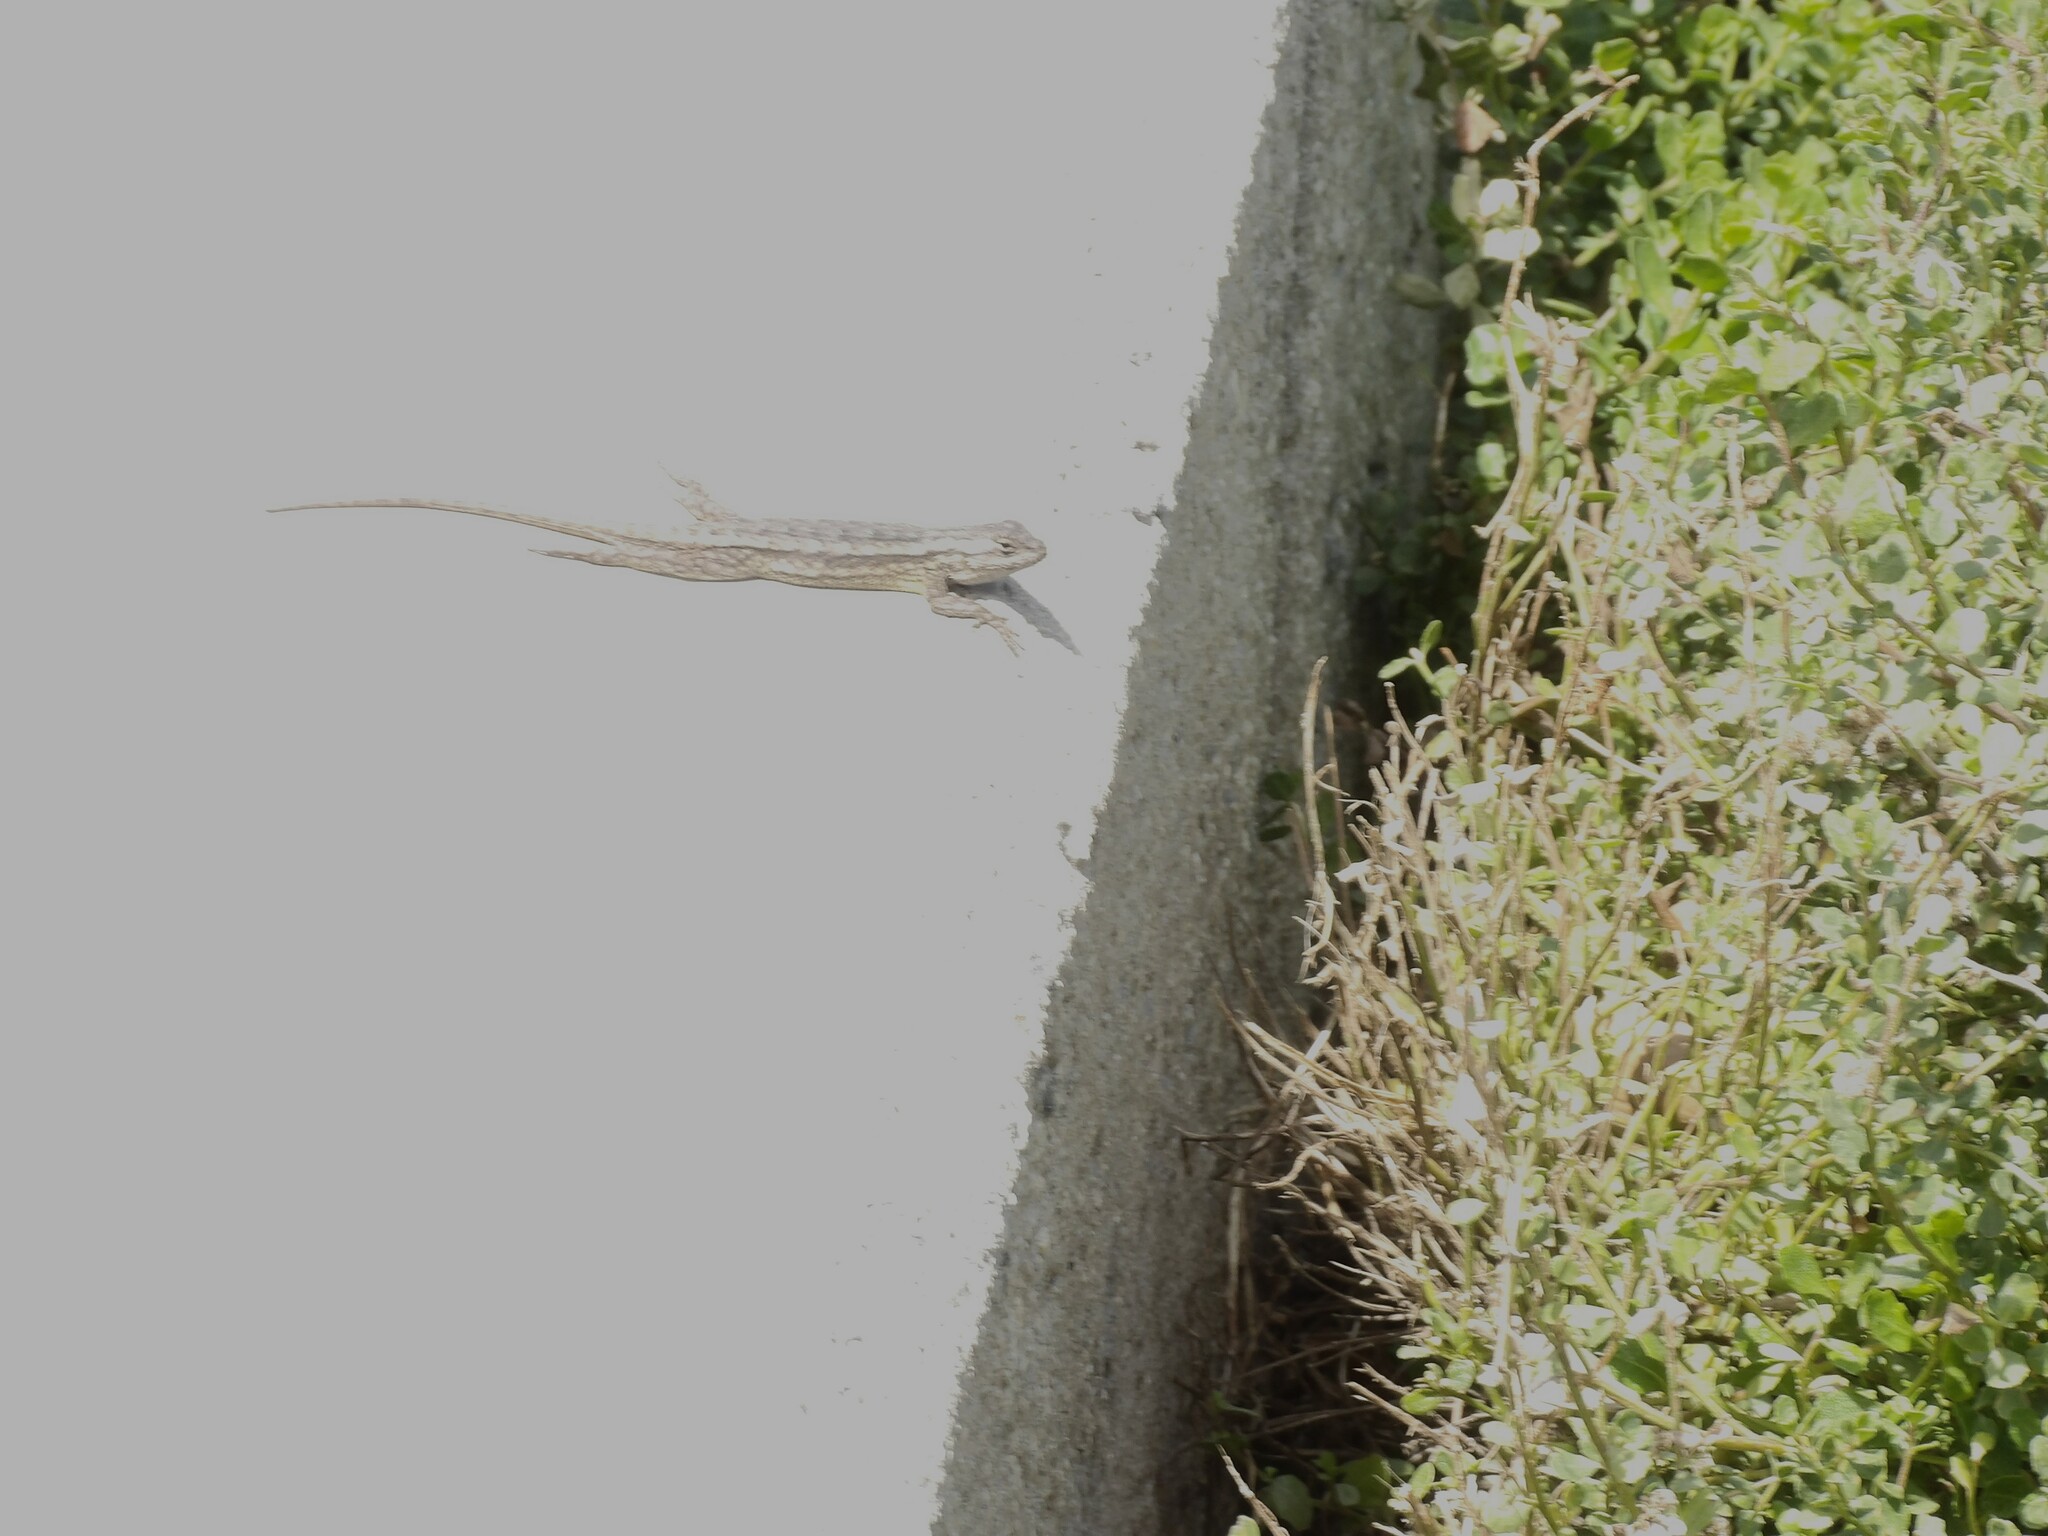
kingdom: Animalia
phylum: Chordata
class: Squamata
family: Phrynosomatidae
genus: Sceloporus
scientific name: Sceloporus occidentalis
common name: Western fence lizard
